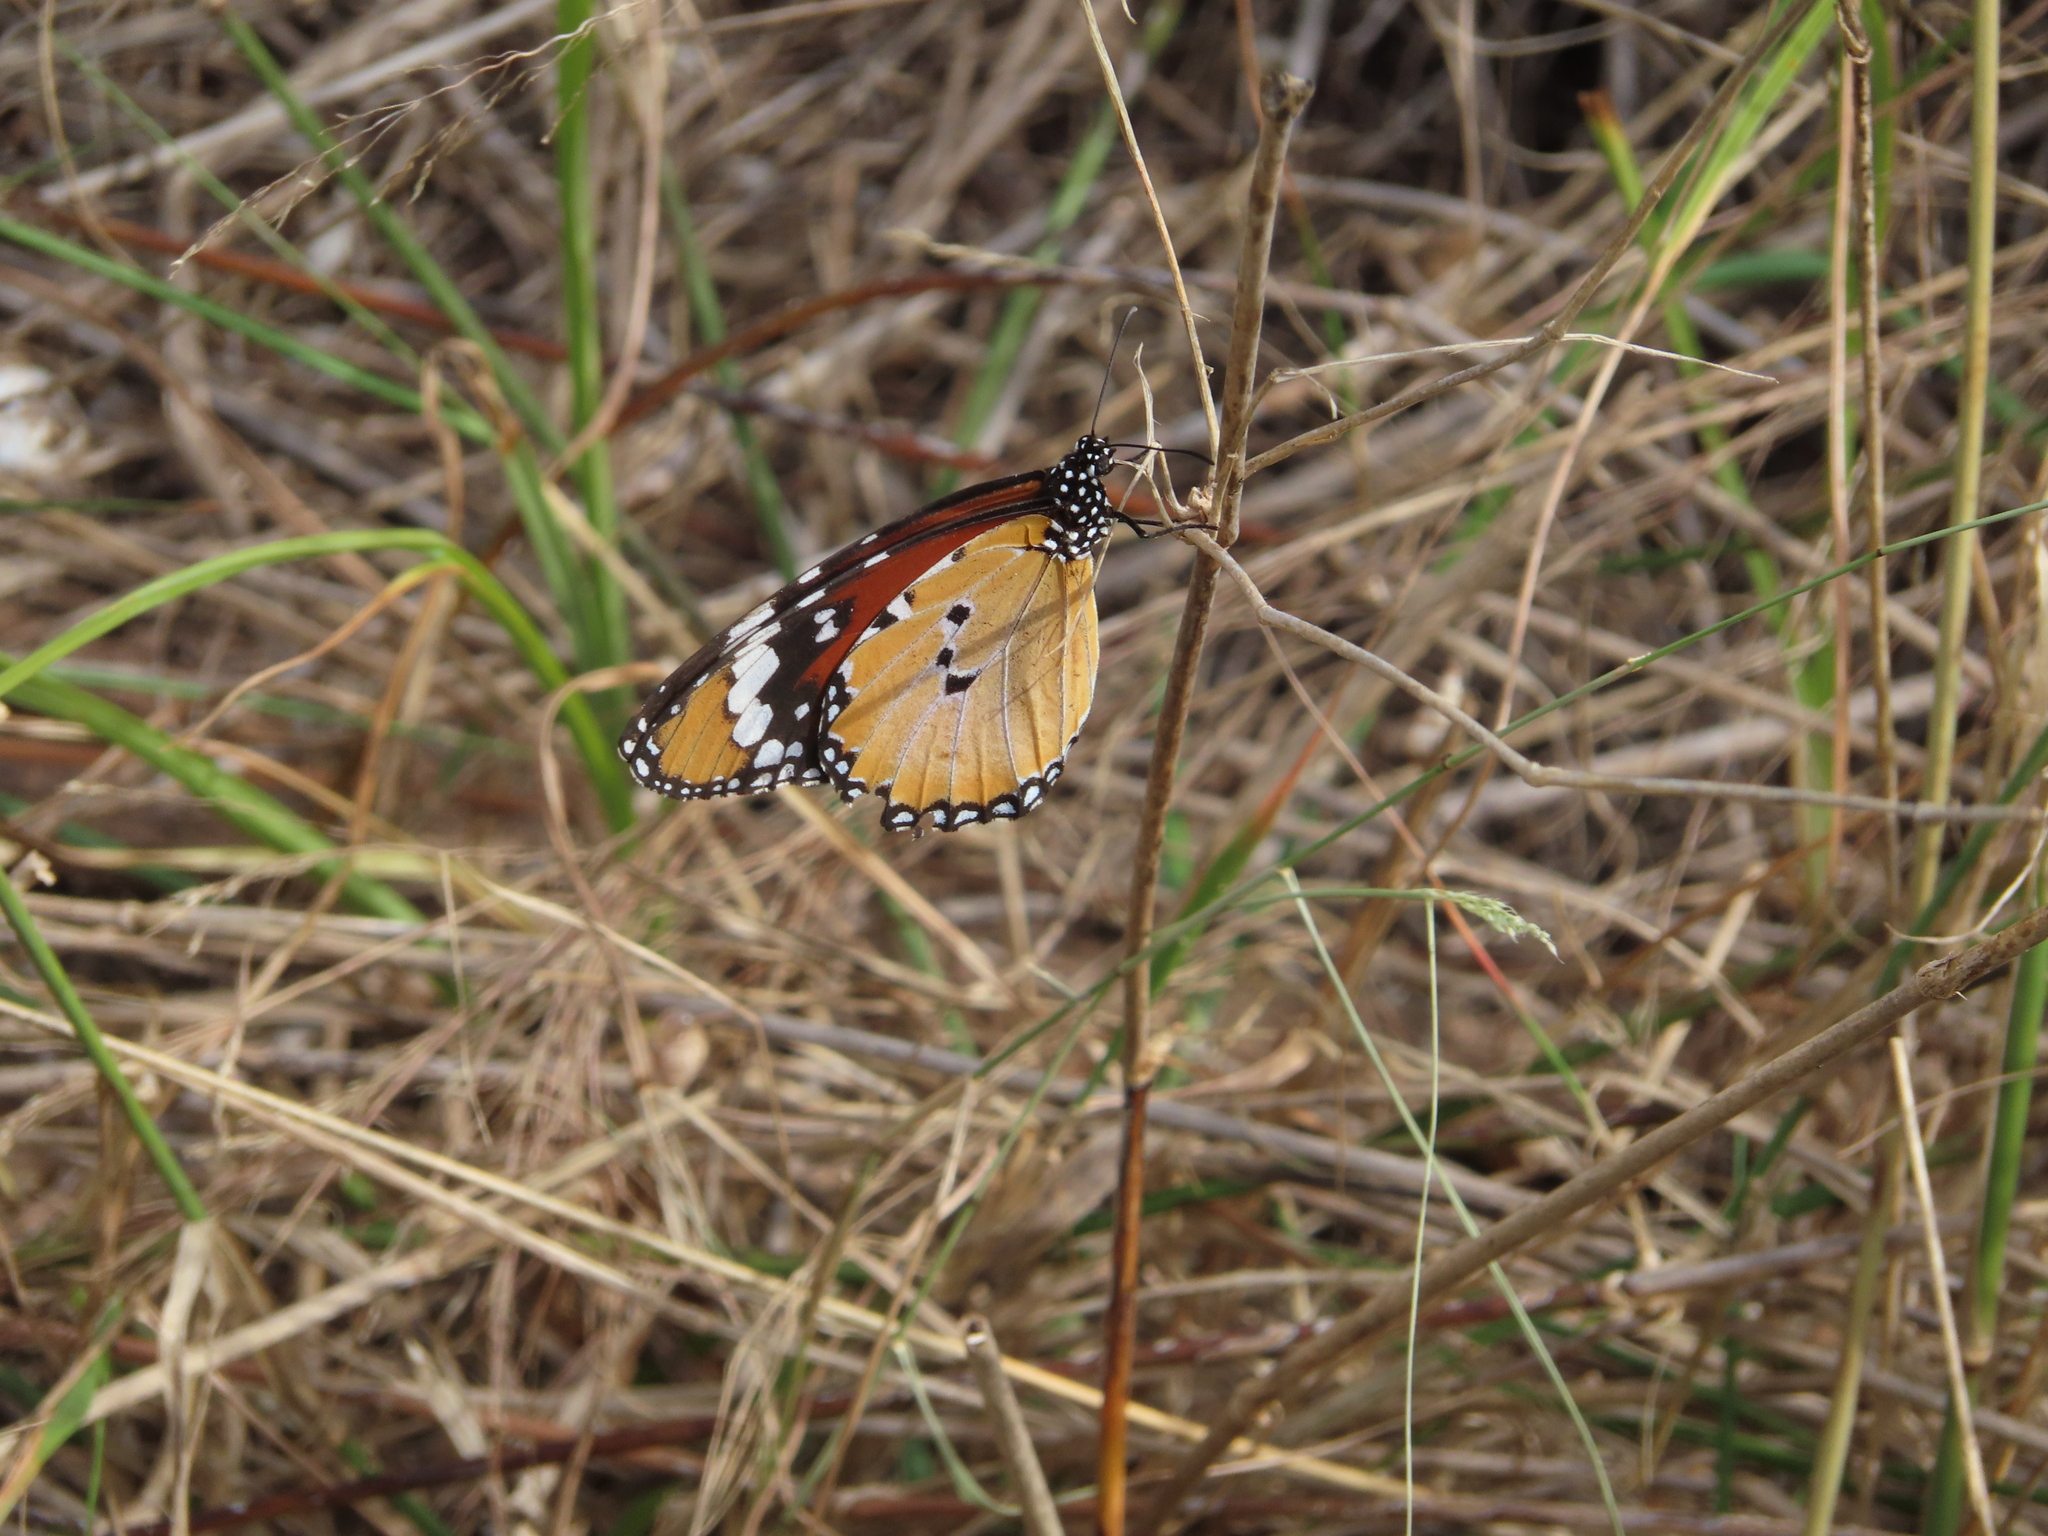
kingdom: Animalia
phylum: Arthropoda
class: Insecta
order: Lepidoptera
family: Nymphalidae
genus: Danaus
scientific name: Danaus chrysippus
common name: Plain tiger
